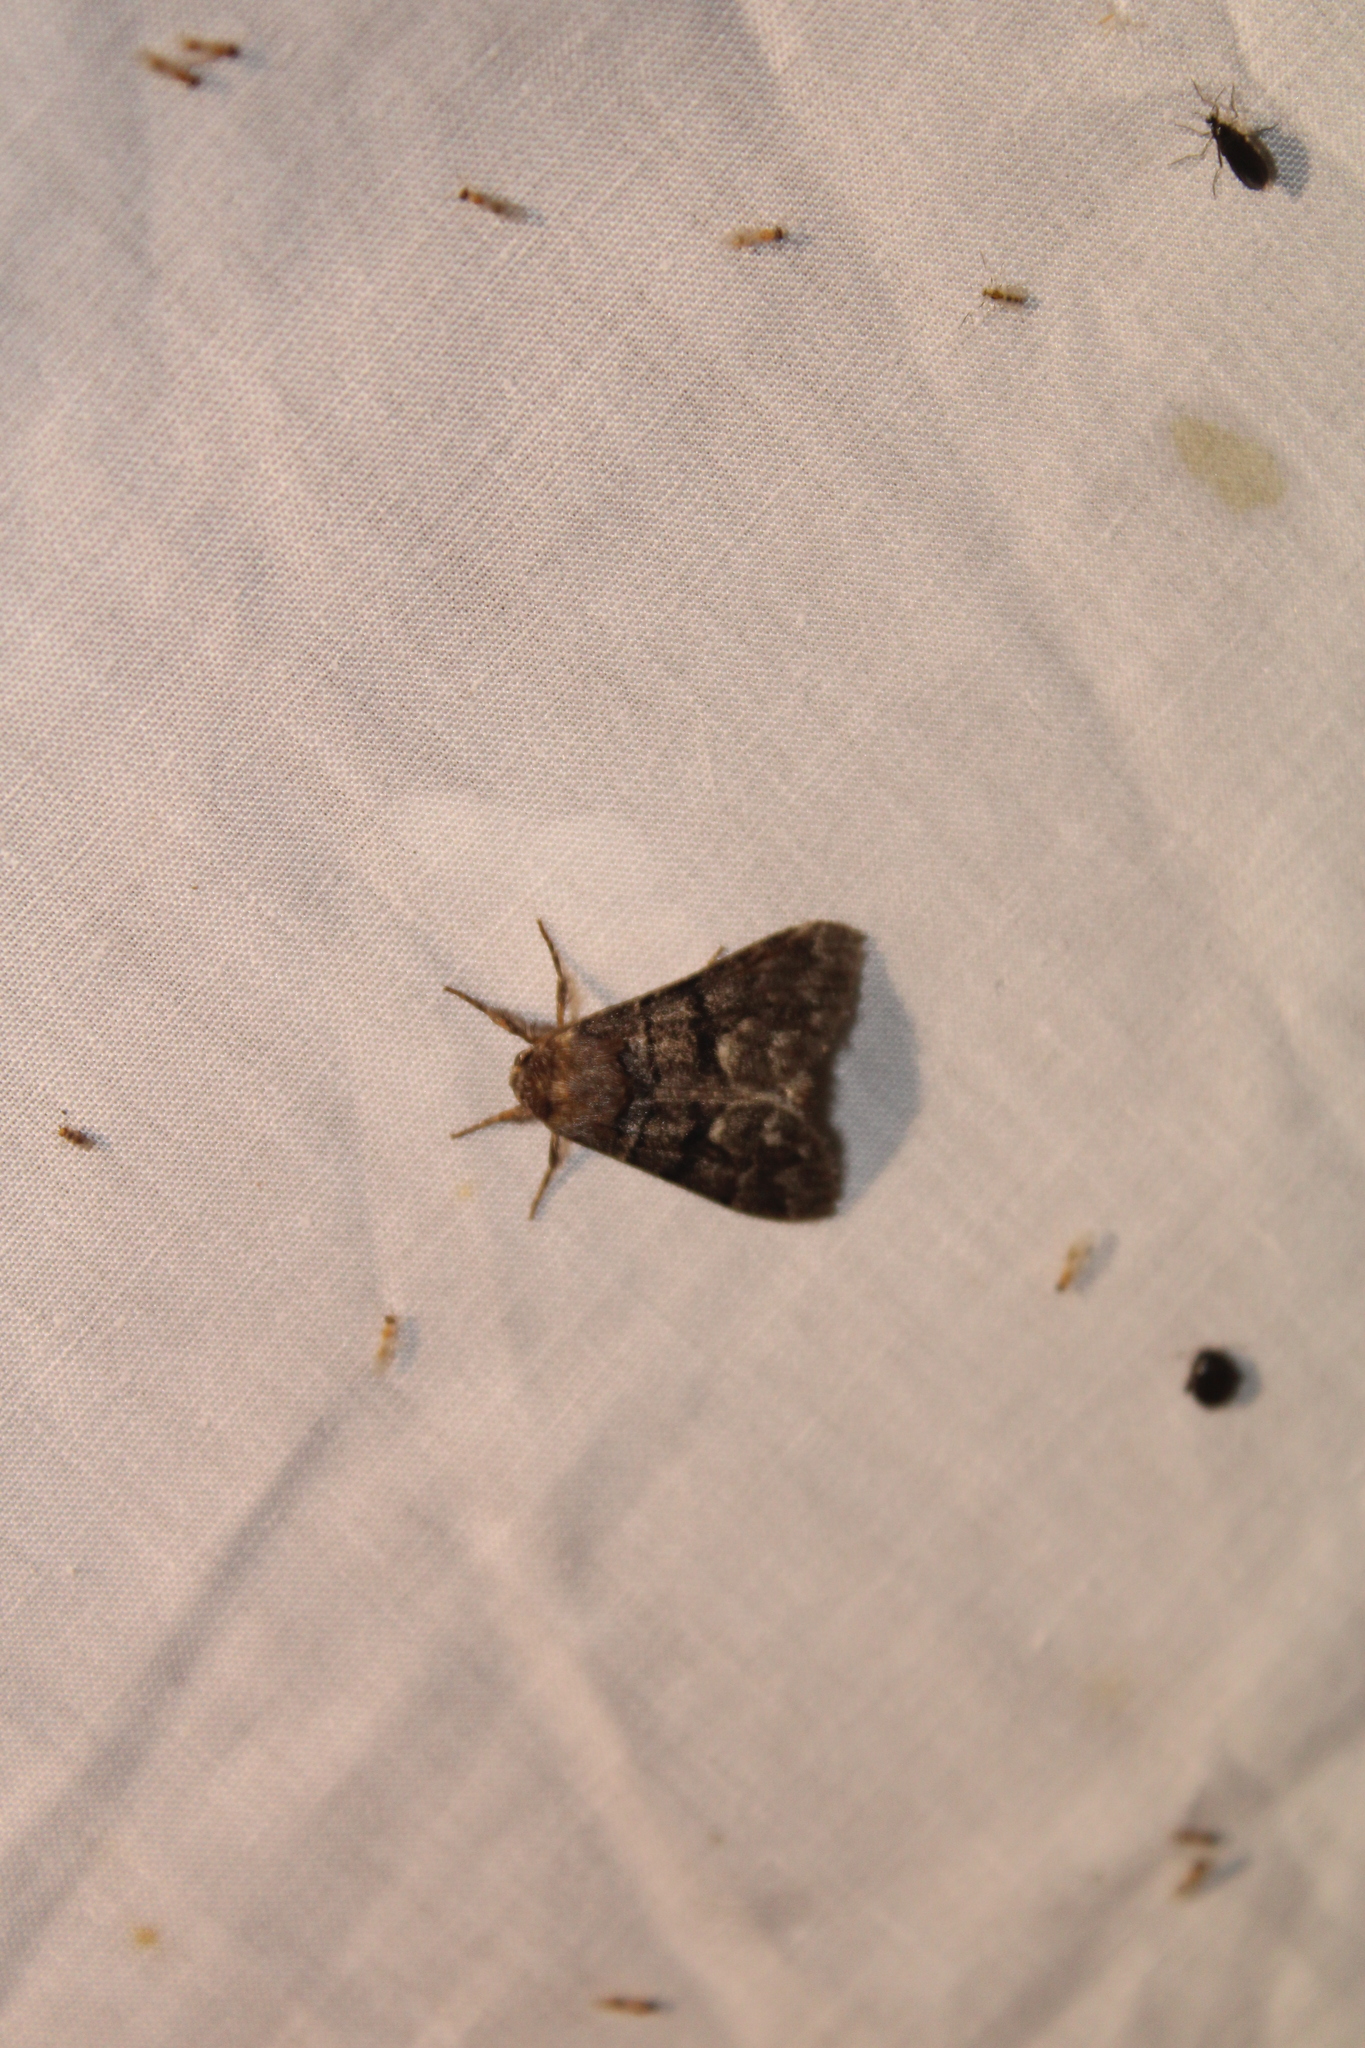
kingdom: Animalia
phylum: Arthropoda
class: Insecta
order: Lepidoptera
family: Noctuidae
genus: Panthea
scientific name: Panthea furcilla
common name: Eastern panthea moth
